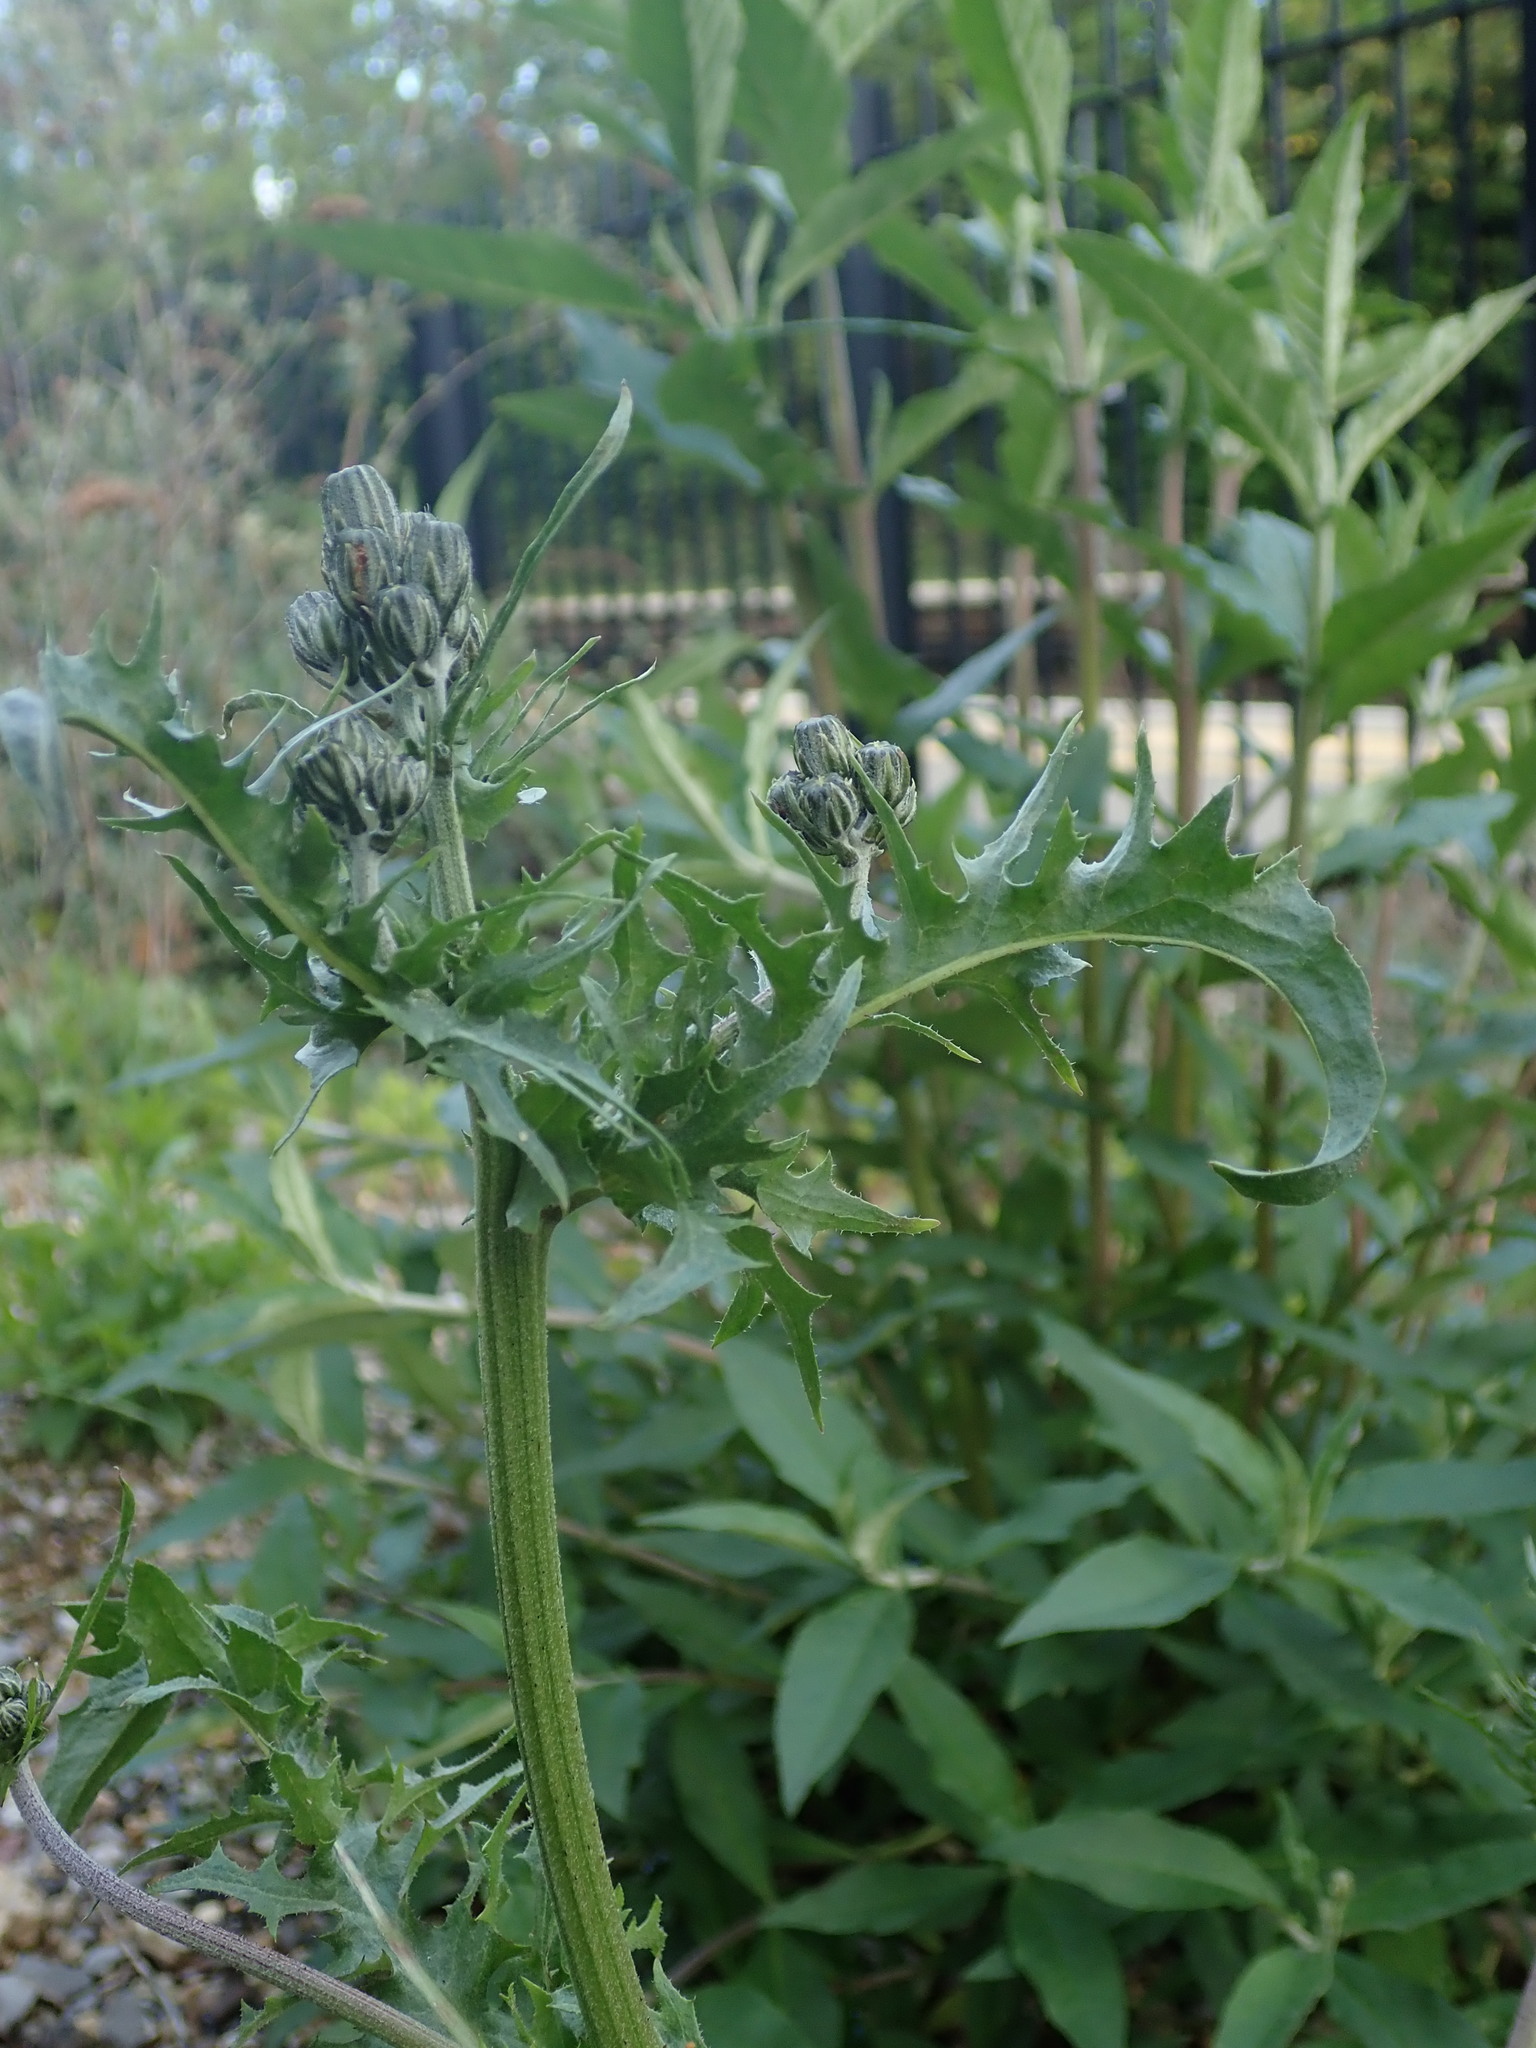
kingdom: Plantae
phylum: Tracheophyta
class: Magnoliopsida
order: Asterales
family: Asteraceae
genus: Crepis
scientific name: Crepis vesicaria
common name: Beaked hawksbeard
